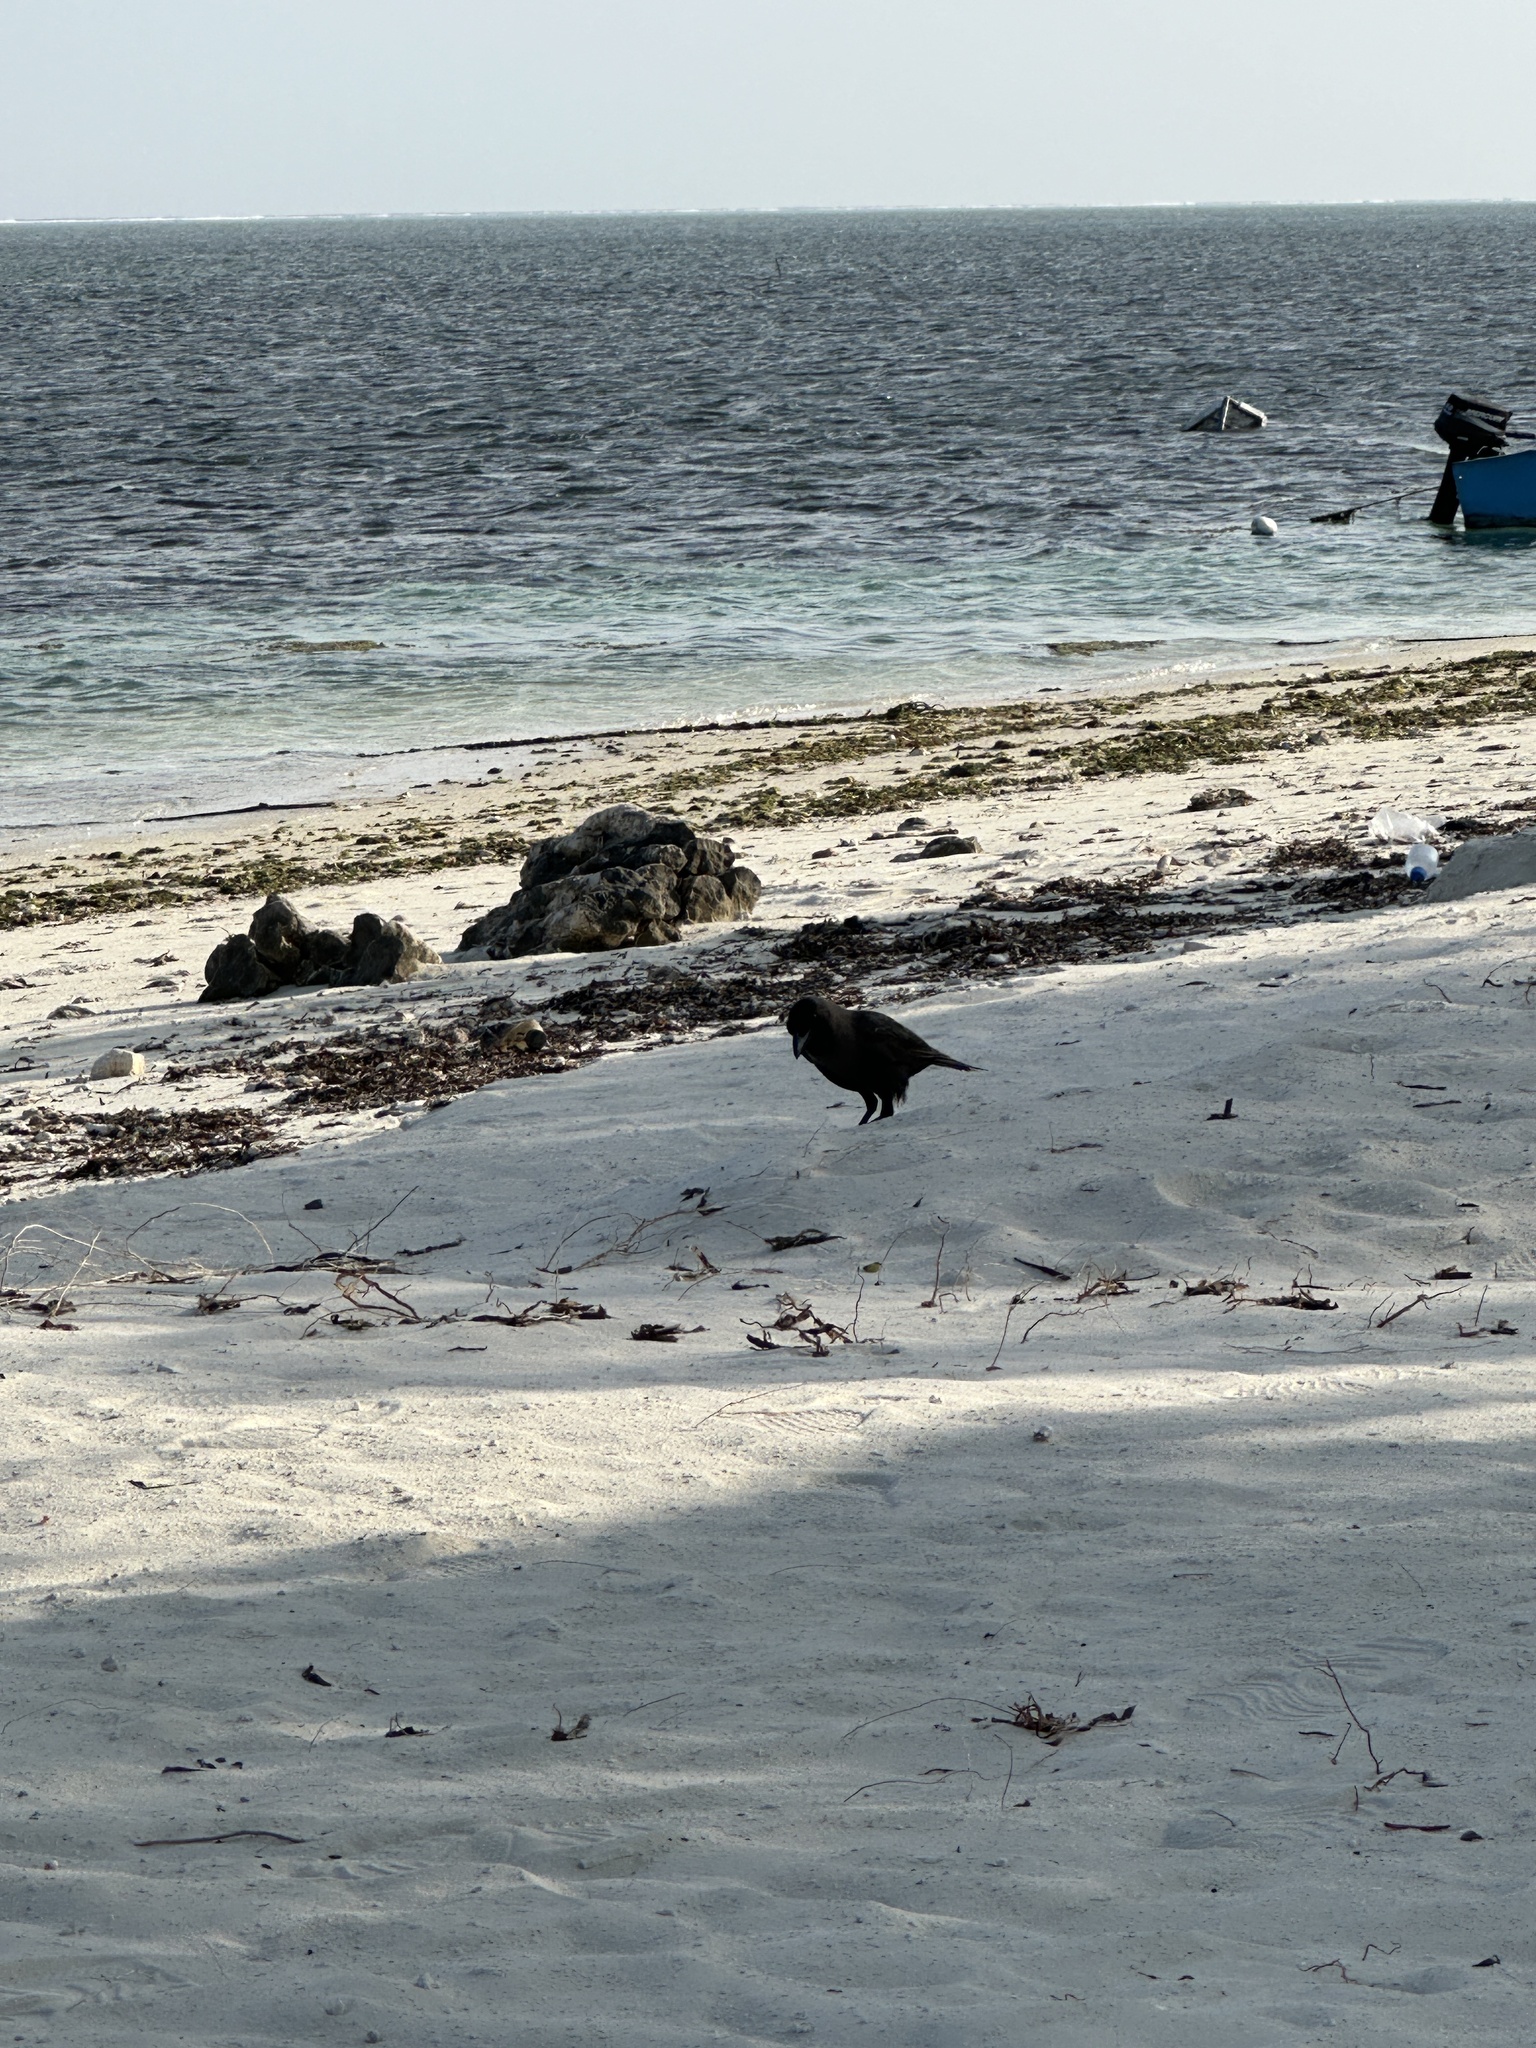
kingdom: Animalia
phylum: Chordata
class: Aves
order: Passeriformes
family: Corvidae
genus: Corvus
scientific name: Corvus splendens
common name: House crow
